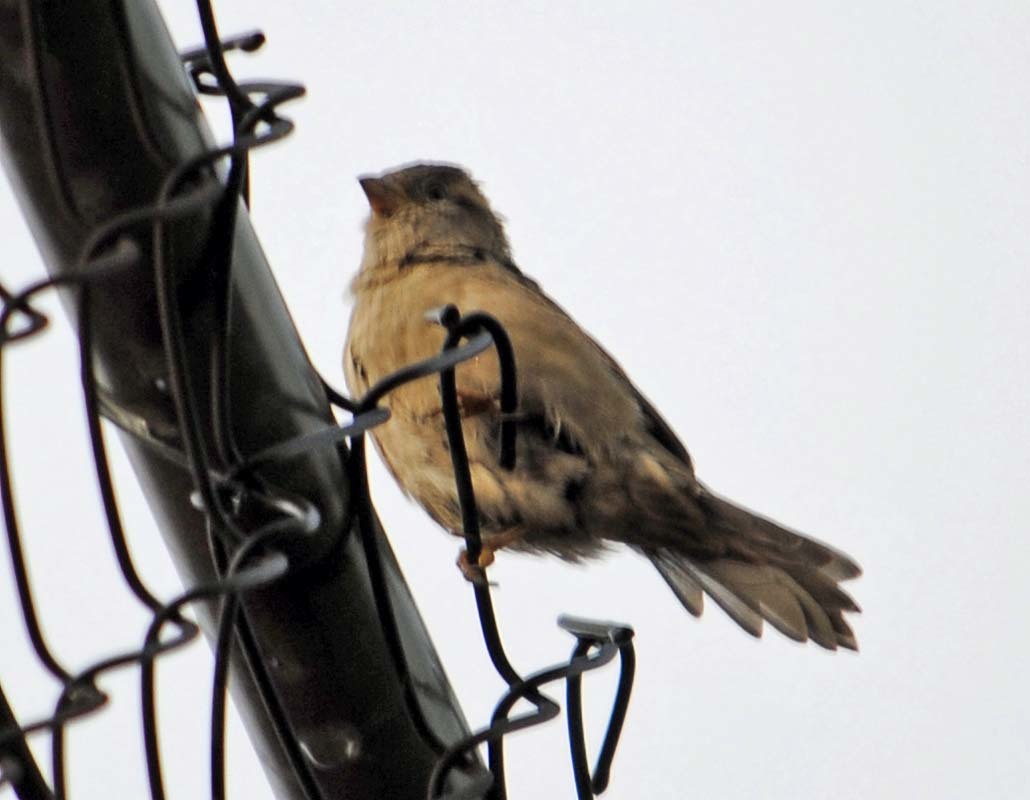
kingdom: Animalia
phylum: Chordata
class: Aves
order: Passeriformes
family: Passeridae
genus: Passer
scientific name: Passer domesticus
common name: House sparrow
